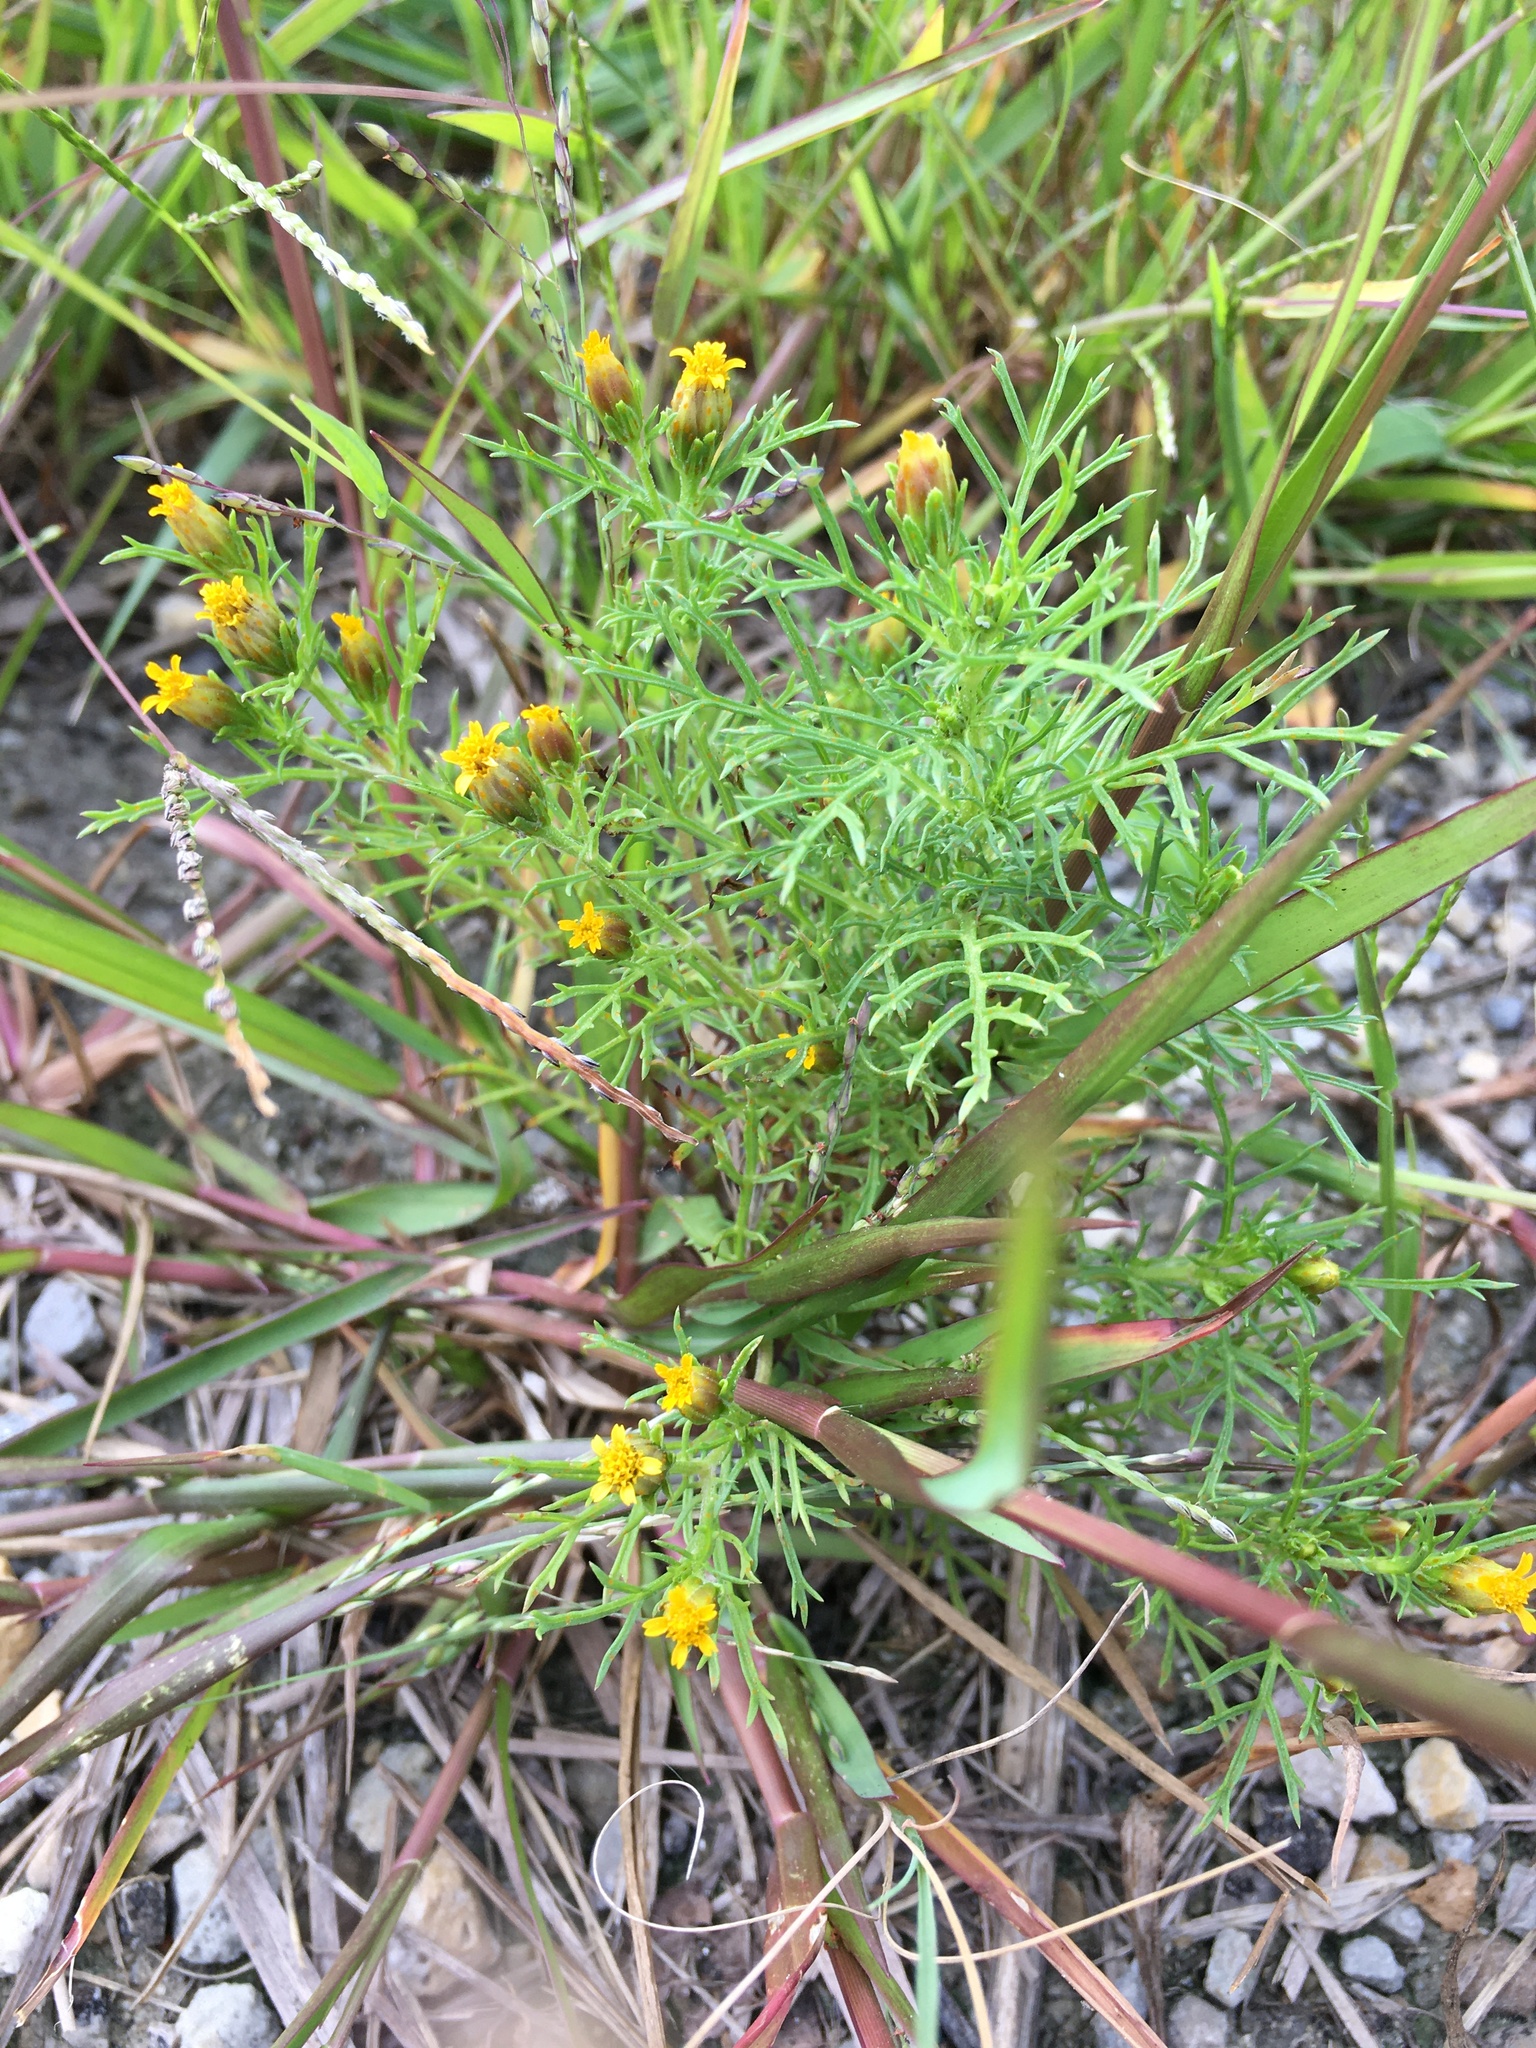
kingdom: Plantae
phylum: Tracheophyta
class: Magnoliopsida
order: Asterales
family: Asteraceae
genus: Dyssodia
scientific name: Dyssodia papposa
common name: Dogweed
